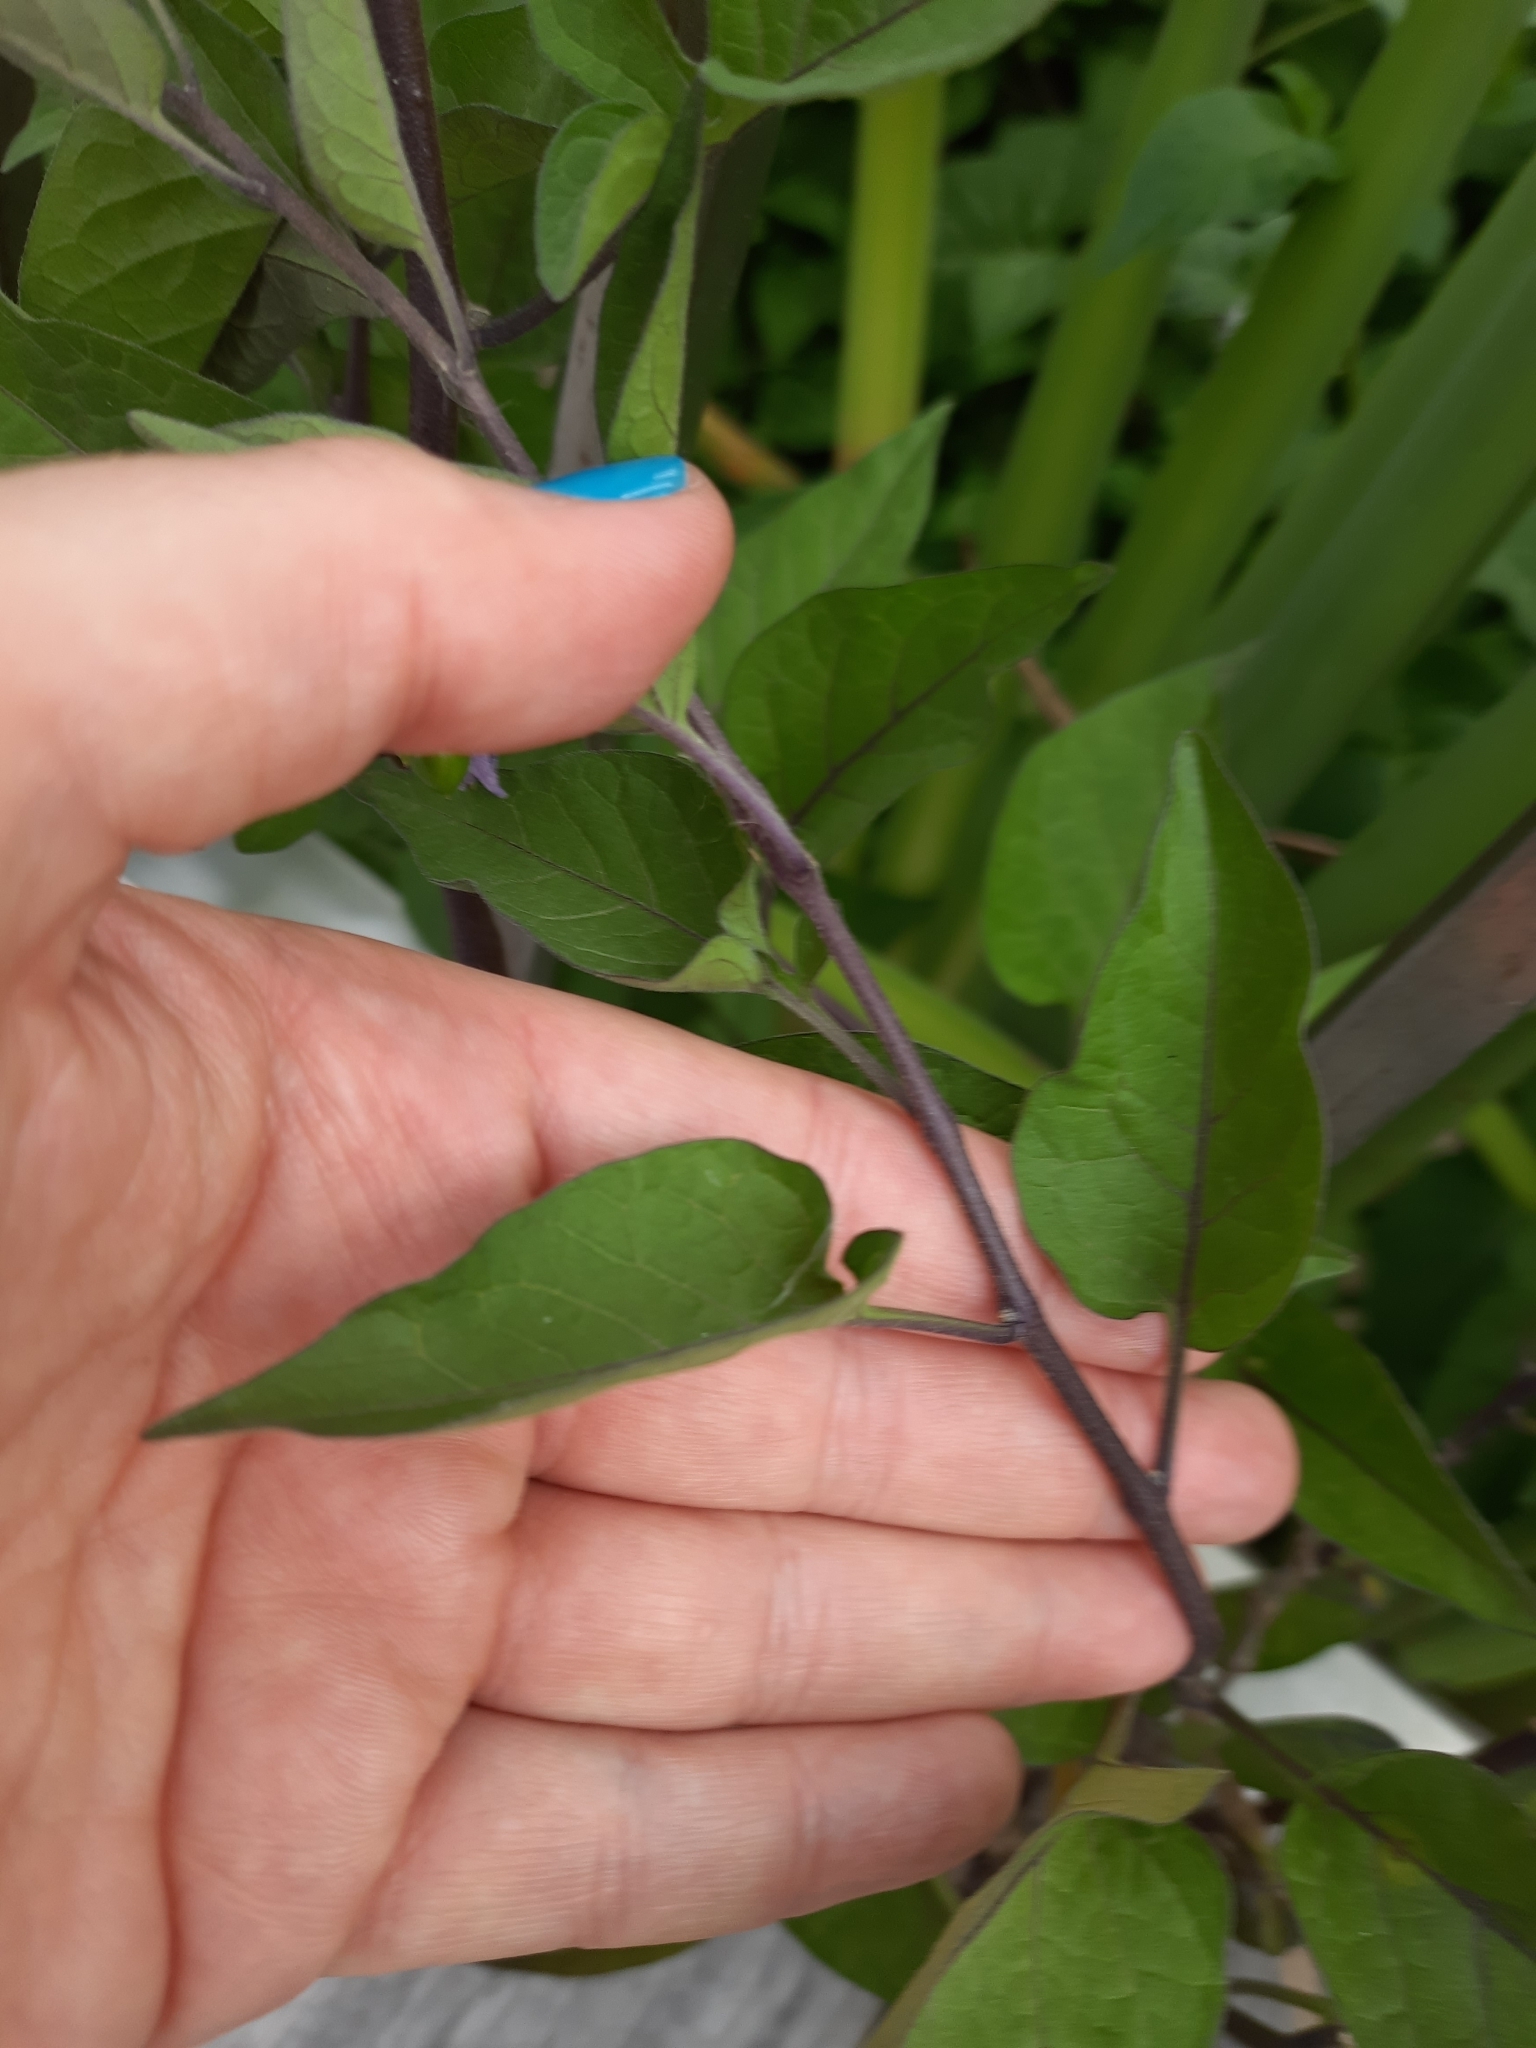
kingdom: Plantae
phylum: Tracheophyta
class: Magnoliopsida
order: Solanales
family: Solanaceae
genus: Solanum
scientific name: Solanum dulcamara
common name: Climbing nightshade
